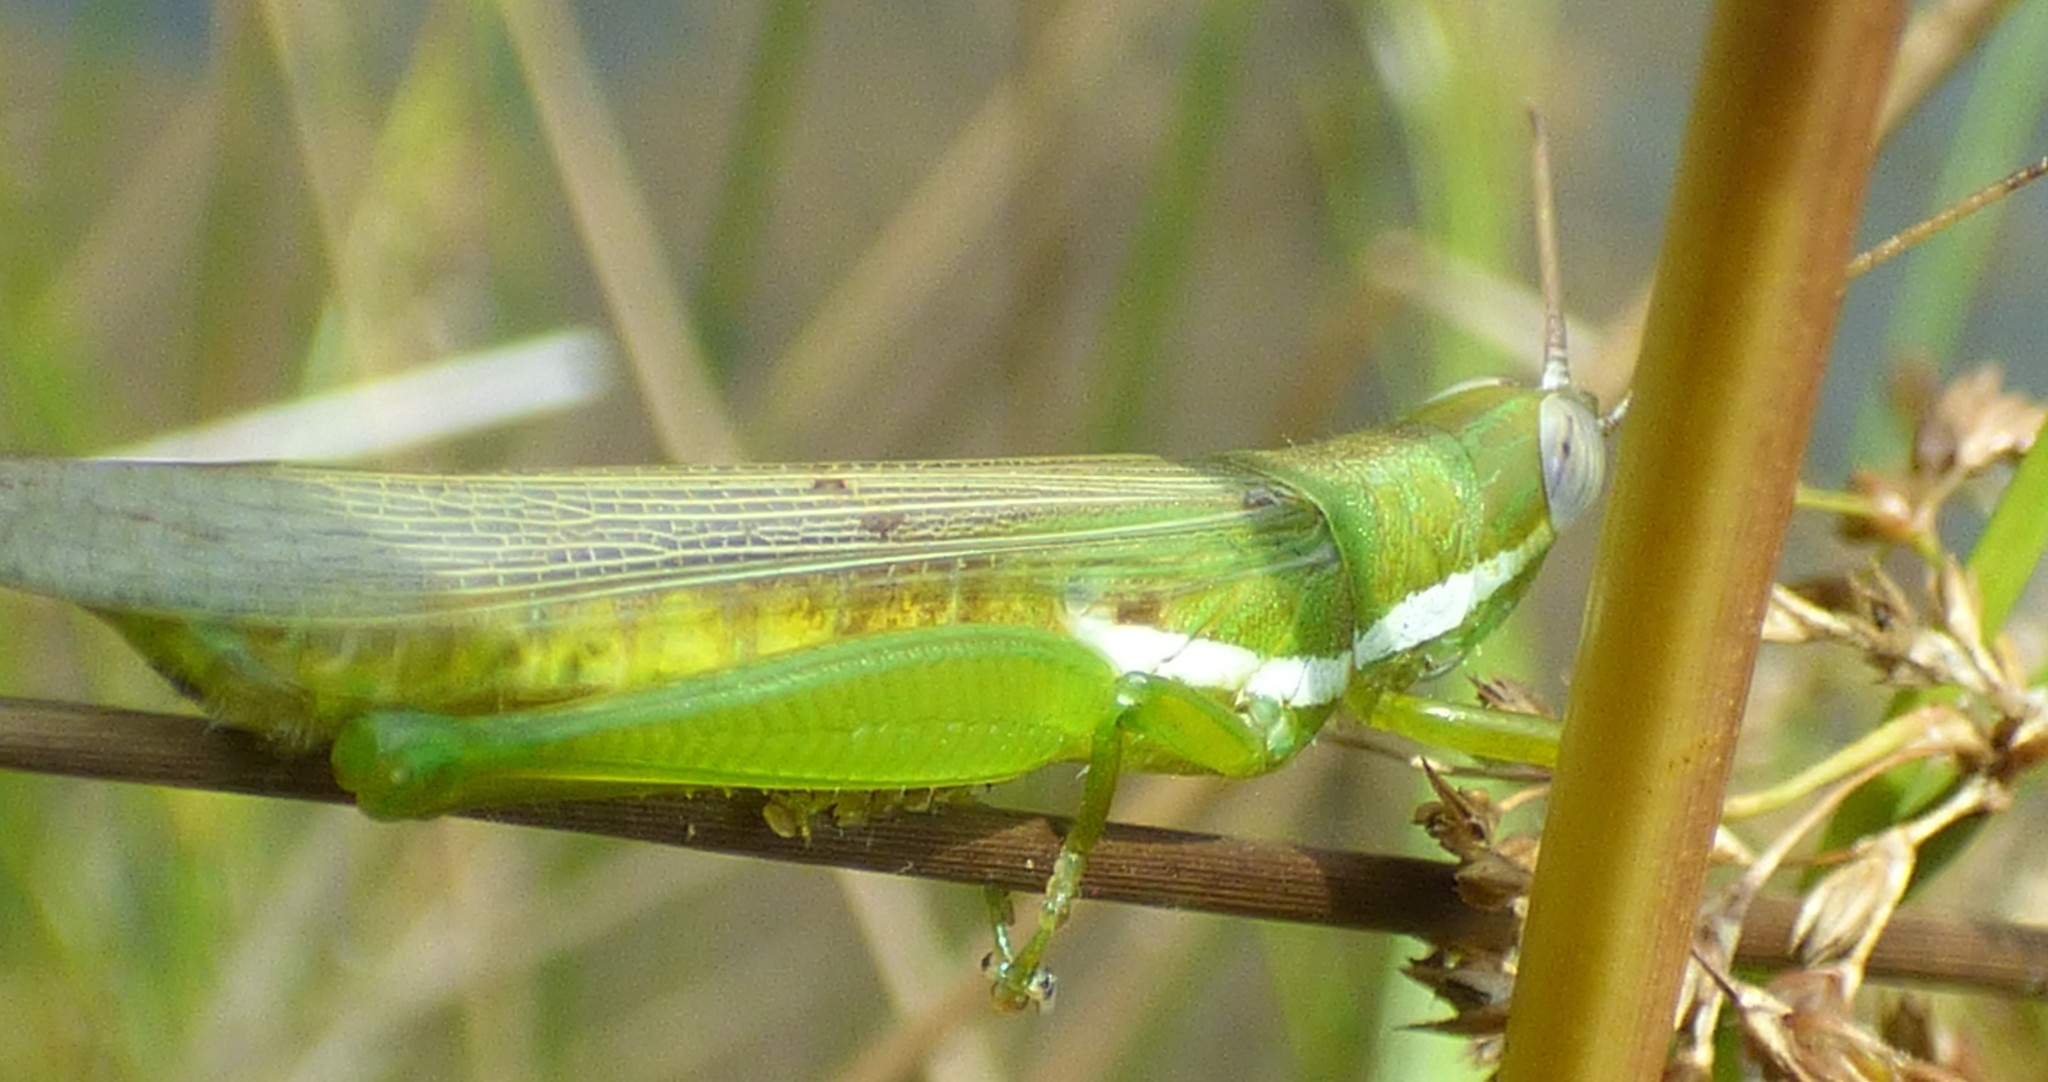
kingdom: Animalia
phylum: Arthropoda
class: Insecta
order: Orthoptera
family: Acrididae
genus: Stenacris
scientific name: Stenacris vitreipennis
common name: Glassy-winged toothpick grasshopper
